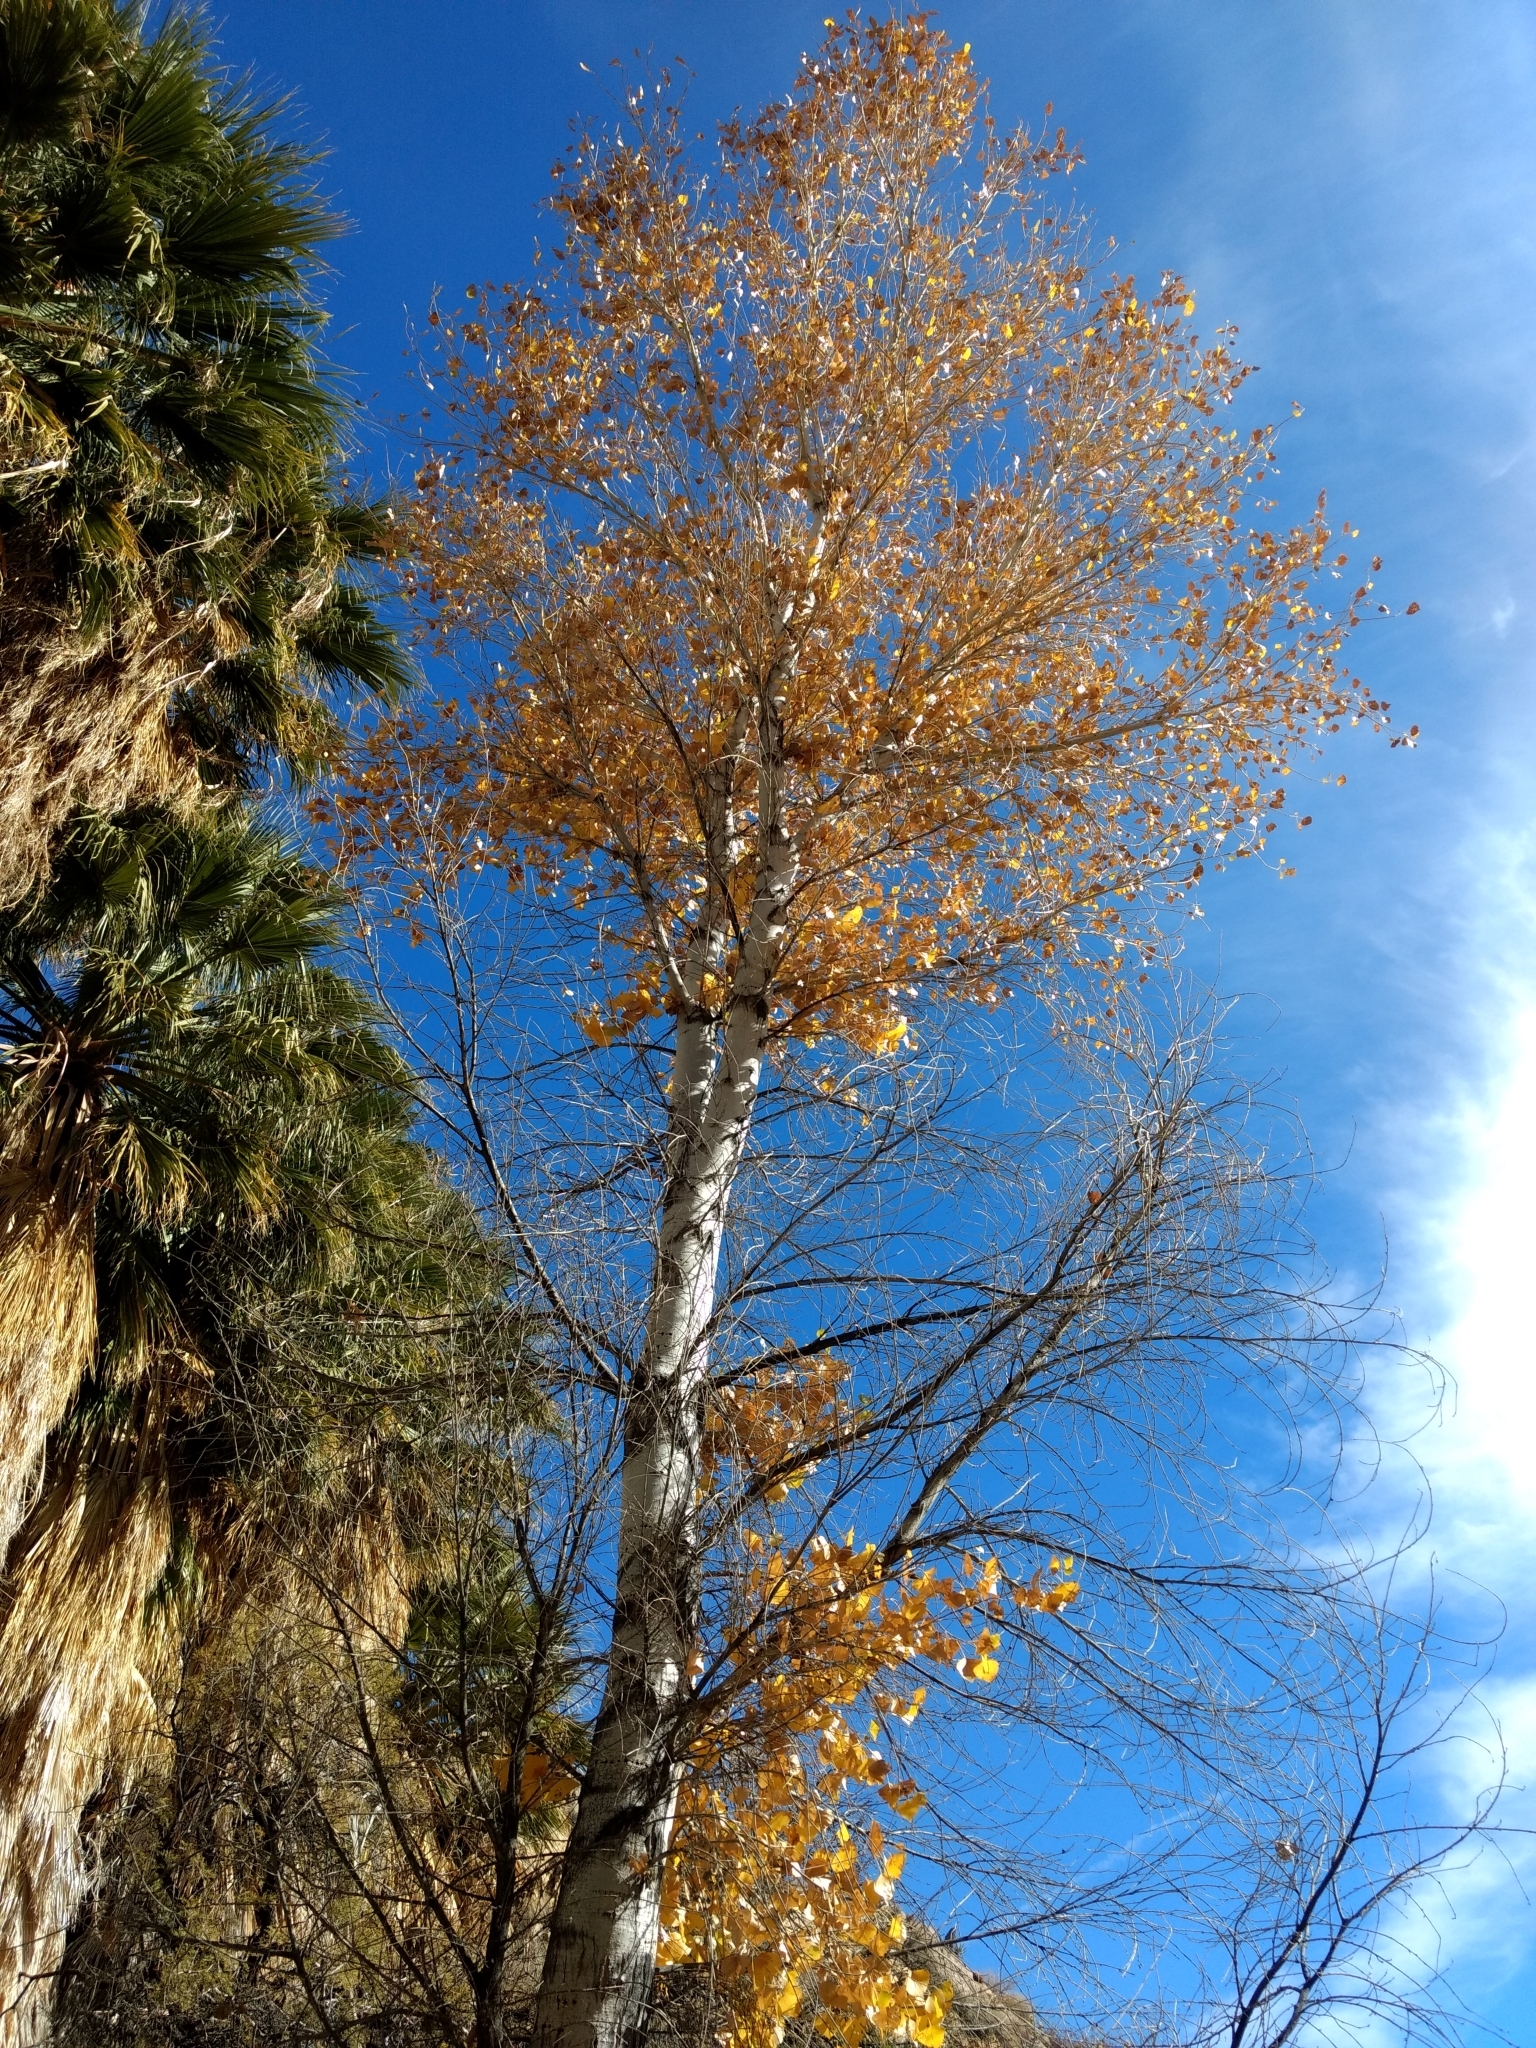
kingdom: Plantae
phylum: Tracheophyta
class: Magnoliopsida
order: Malpighiales
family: Salicaceae
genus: Populus
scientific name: Populus fremontii
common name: Fremont's cottonwood
